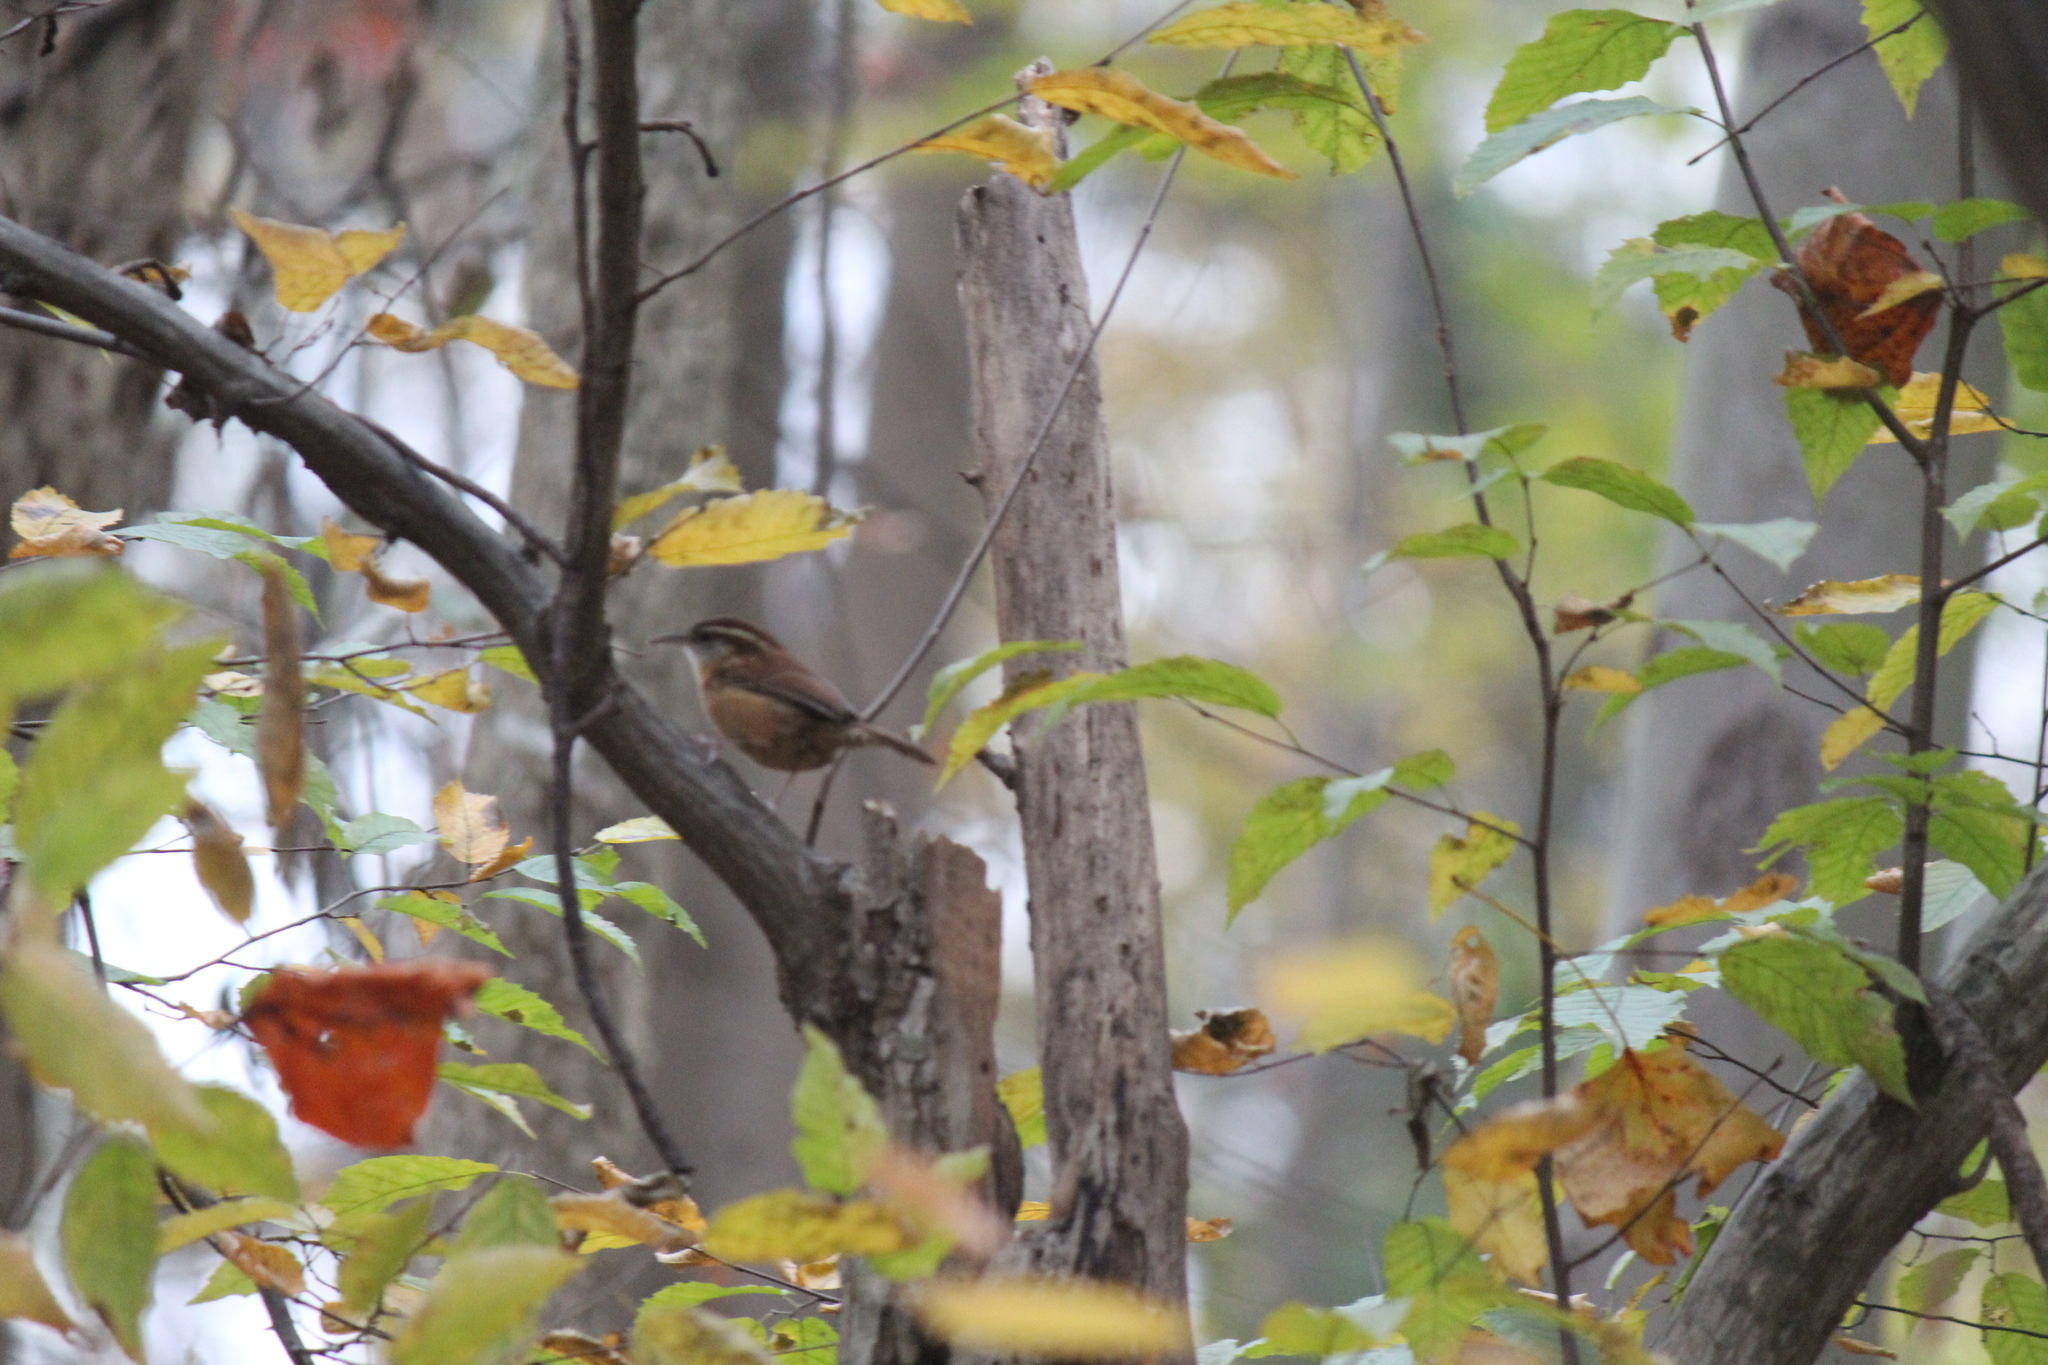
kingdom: Animalia
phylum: Chordata
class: Aves
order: Passeriformes
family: Troglodytidae
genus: Thryothorus
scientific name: Thryothorus ludovicianus
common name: Carolina wren
